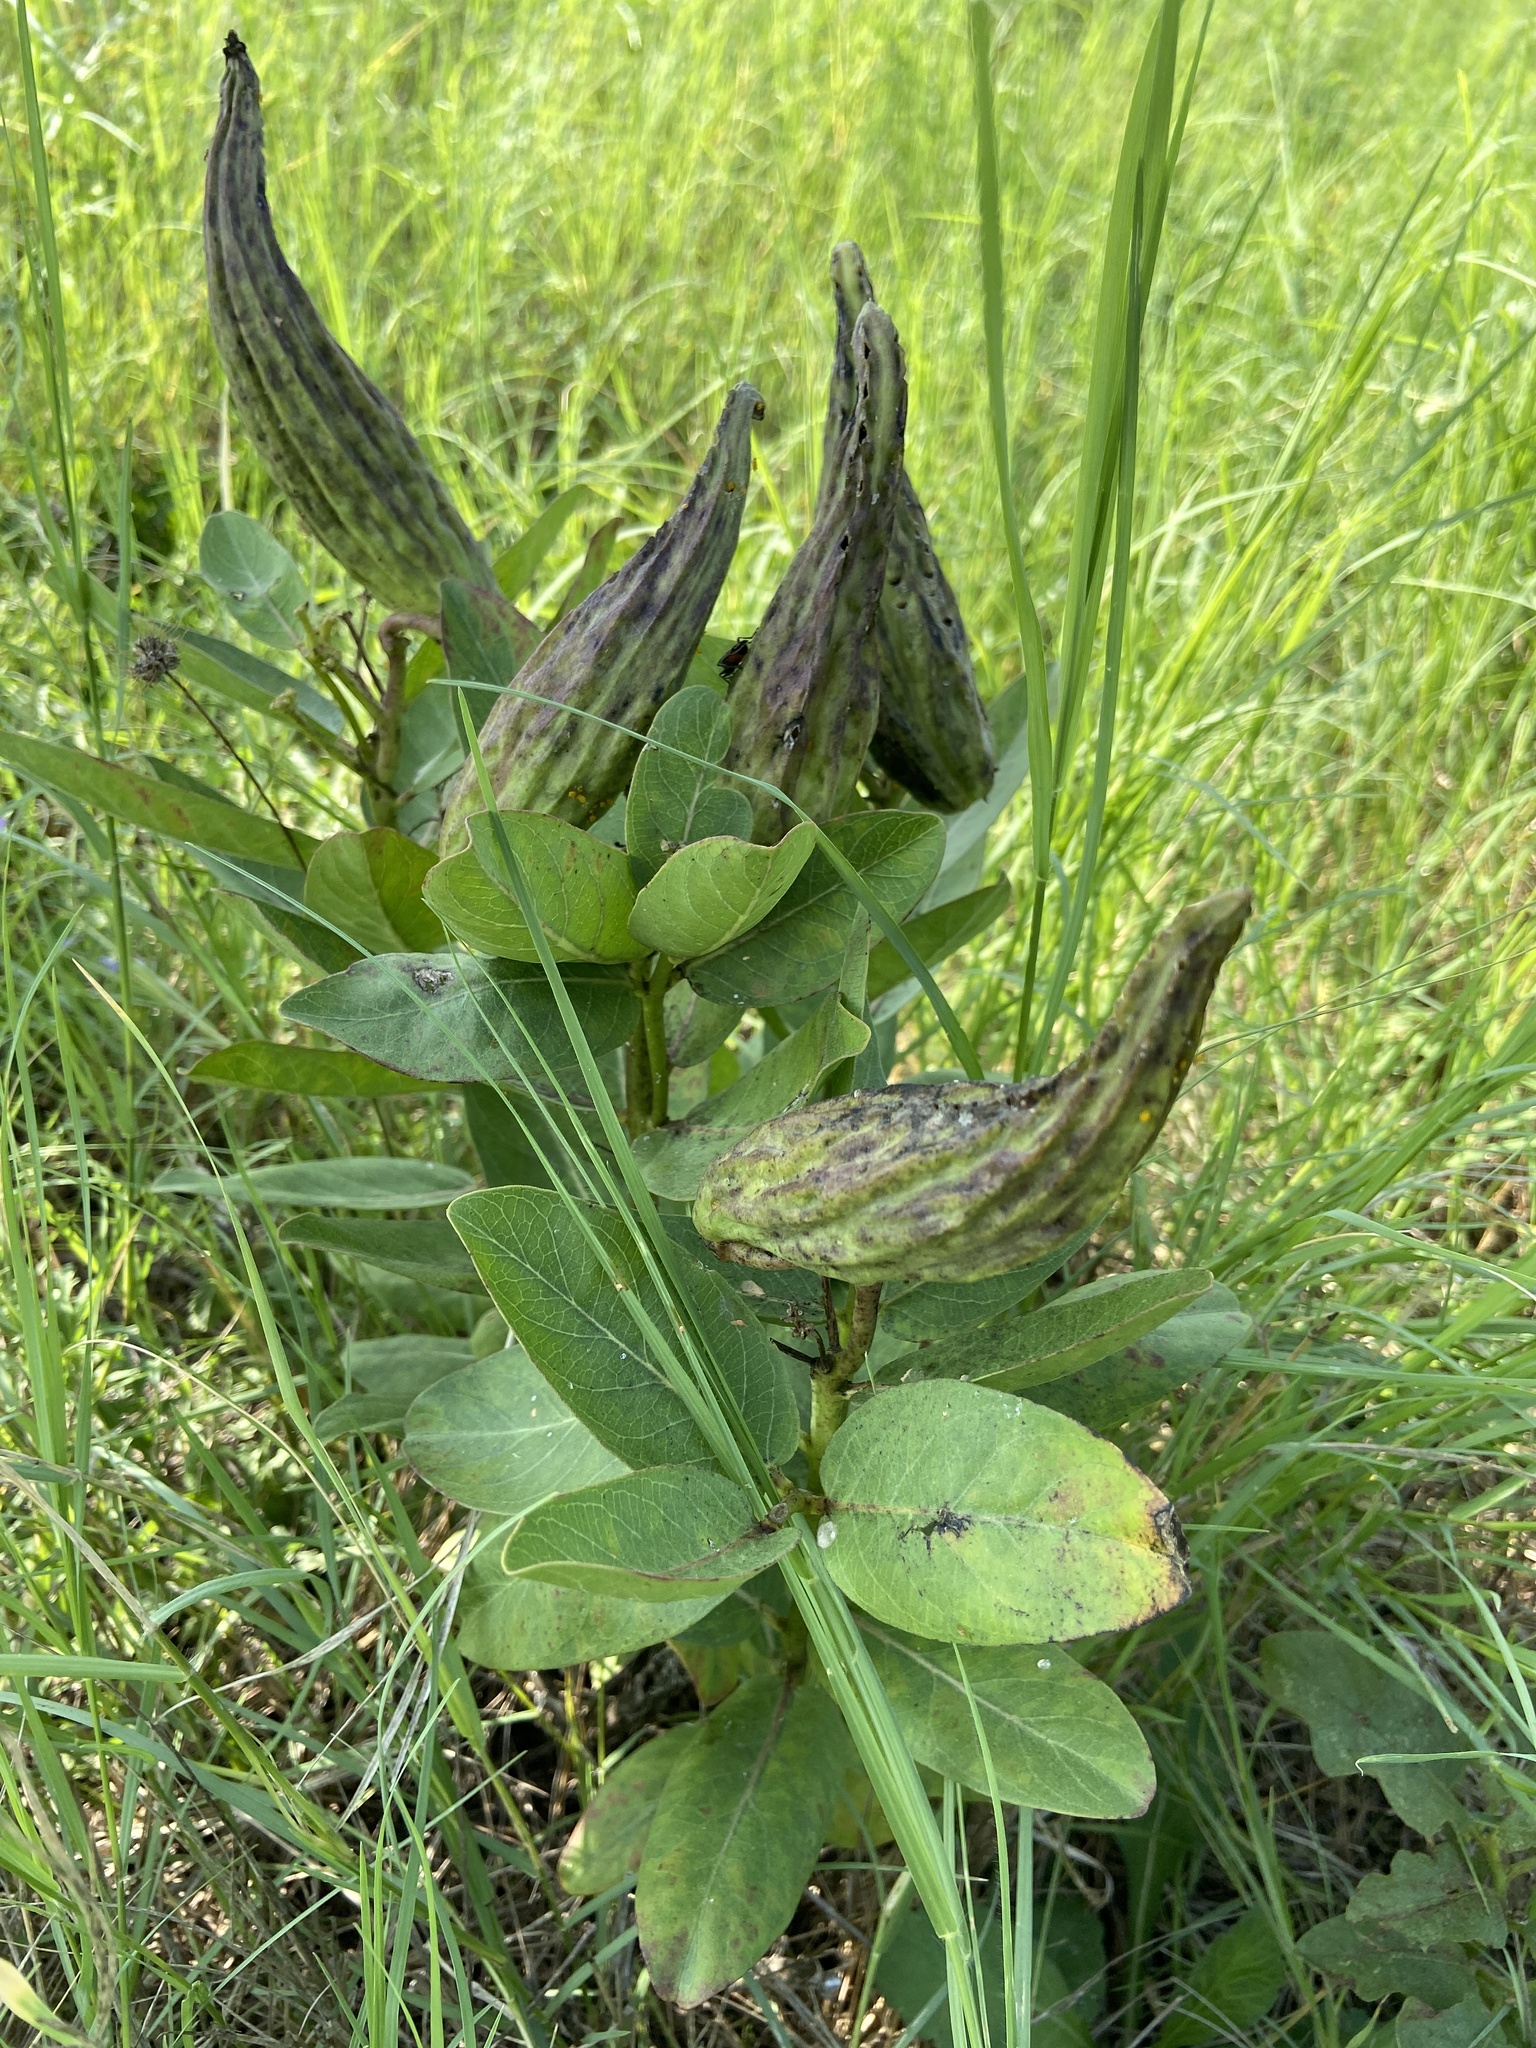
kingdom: Plantae
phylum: Tracheophyta
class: Magnoliopsida
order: Gentianales
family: Apocynaceae
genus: Asclepias
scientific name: Asclepias viridis
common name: Antelope-horns
